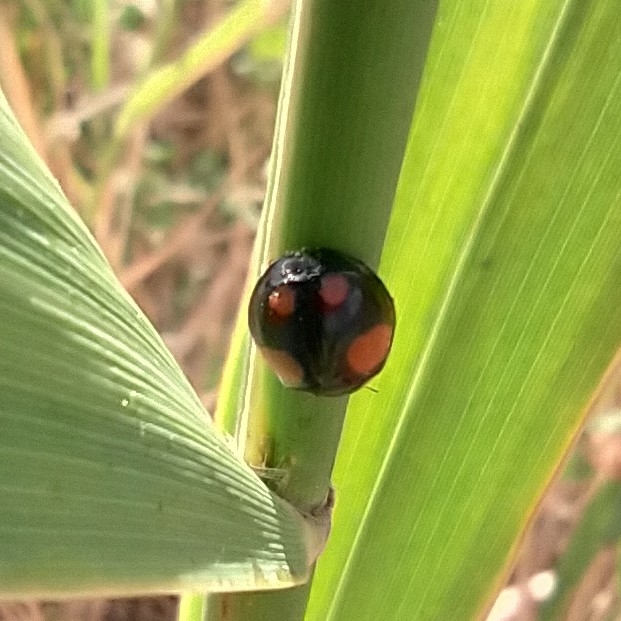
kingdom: Animalia
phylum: Arthropoda
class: Insecta
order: Coleoptera
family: Coccinellidae
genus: Harmonia
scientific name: Harmonia axyridis
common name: Harlequin ladybird
